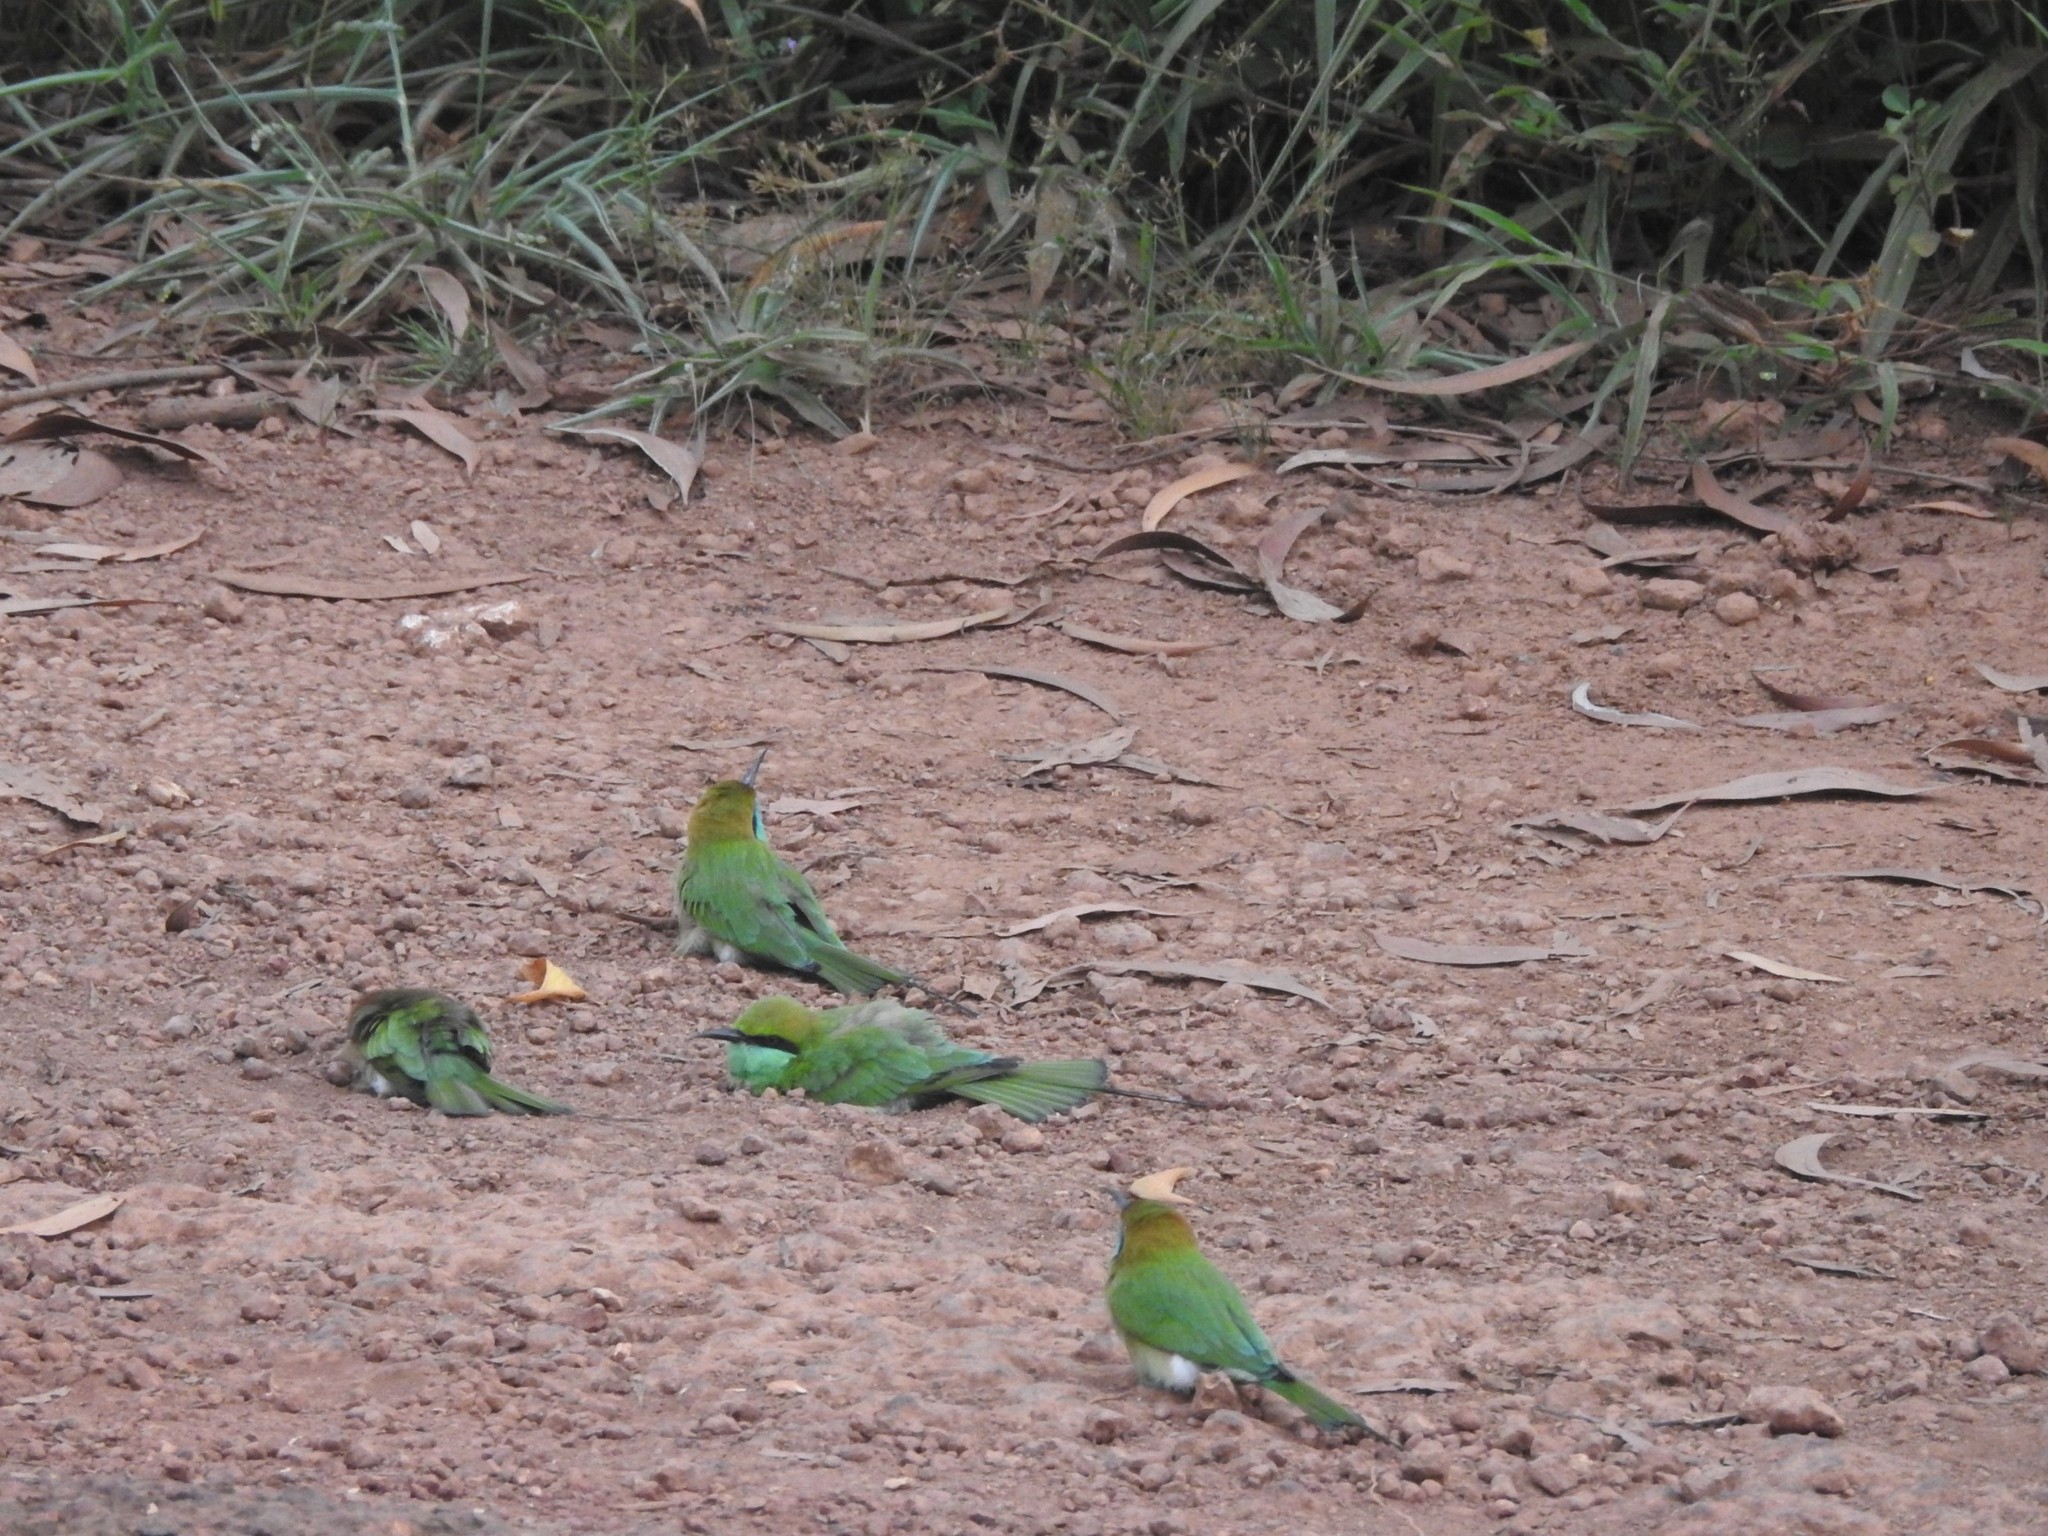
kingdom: Animalia
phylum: Chordata
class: Aves
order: Coraciiformes
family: Meropidae
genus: Merops
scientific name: Merops orientalis
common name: Green bee-eater
